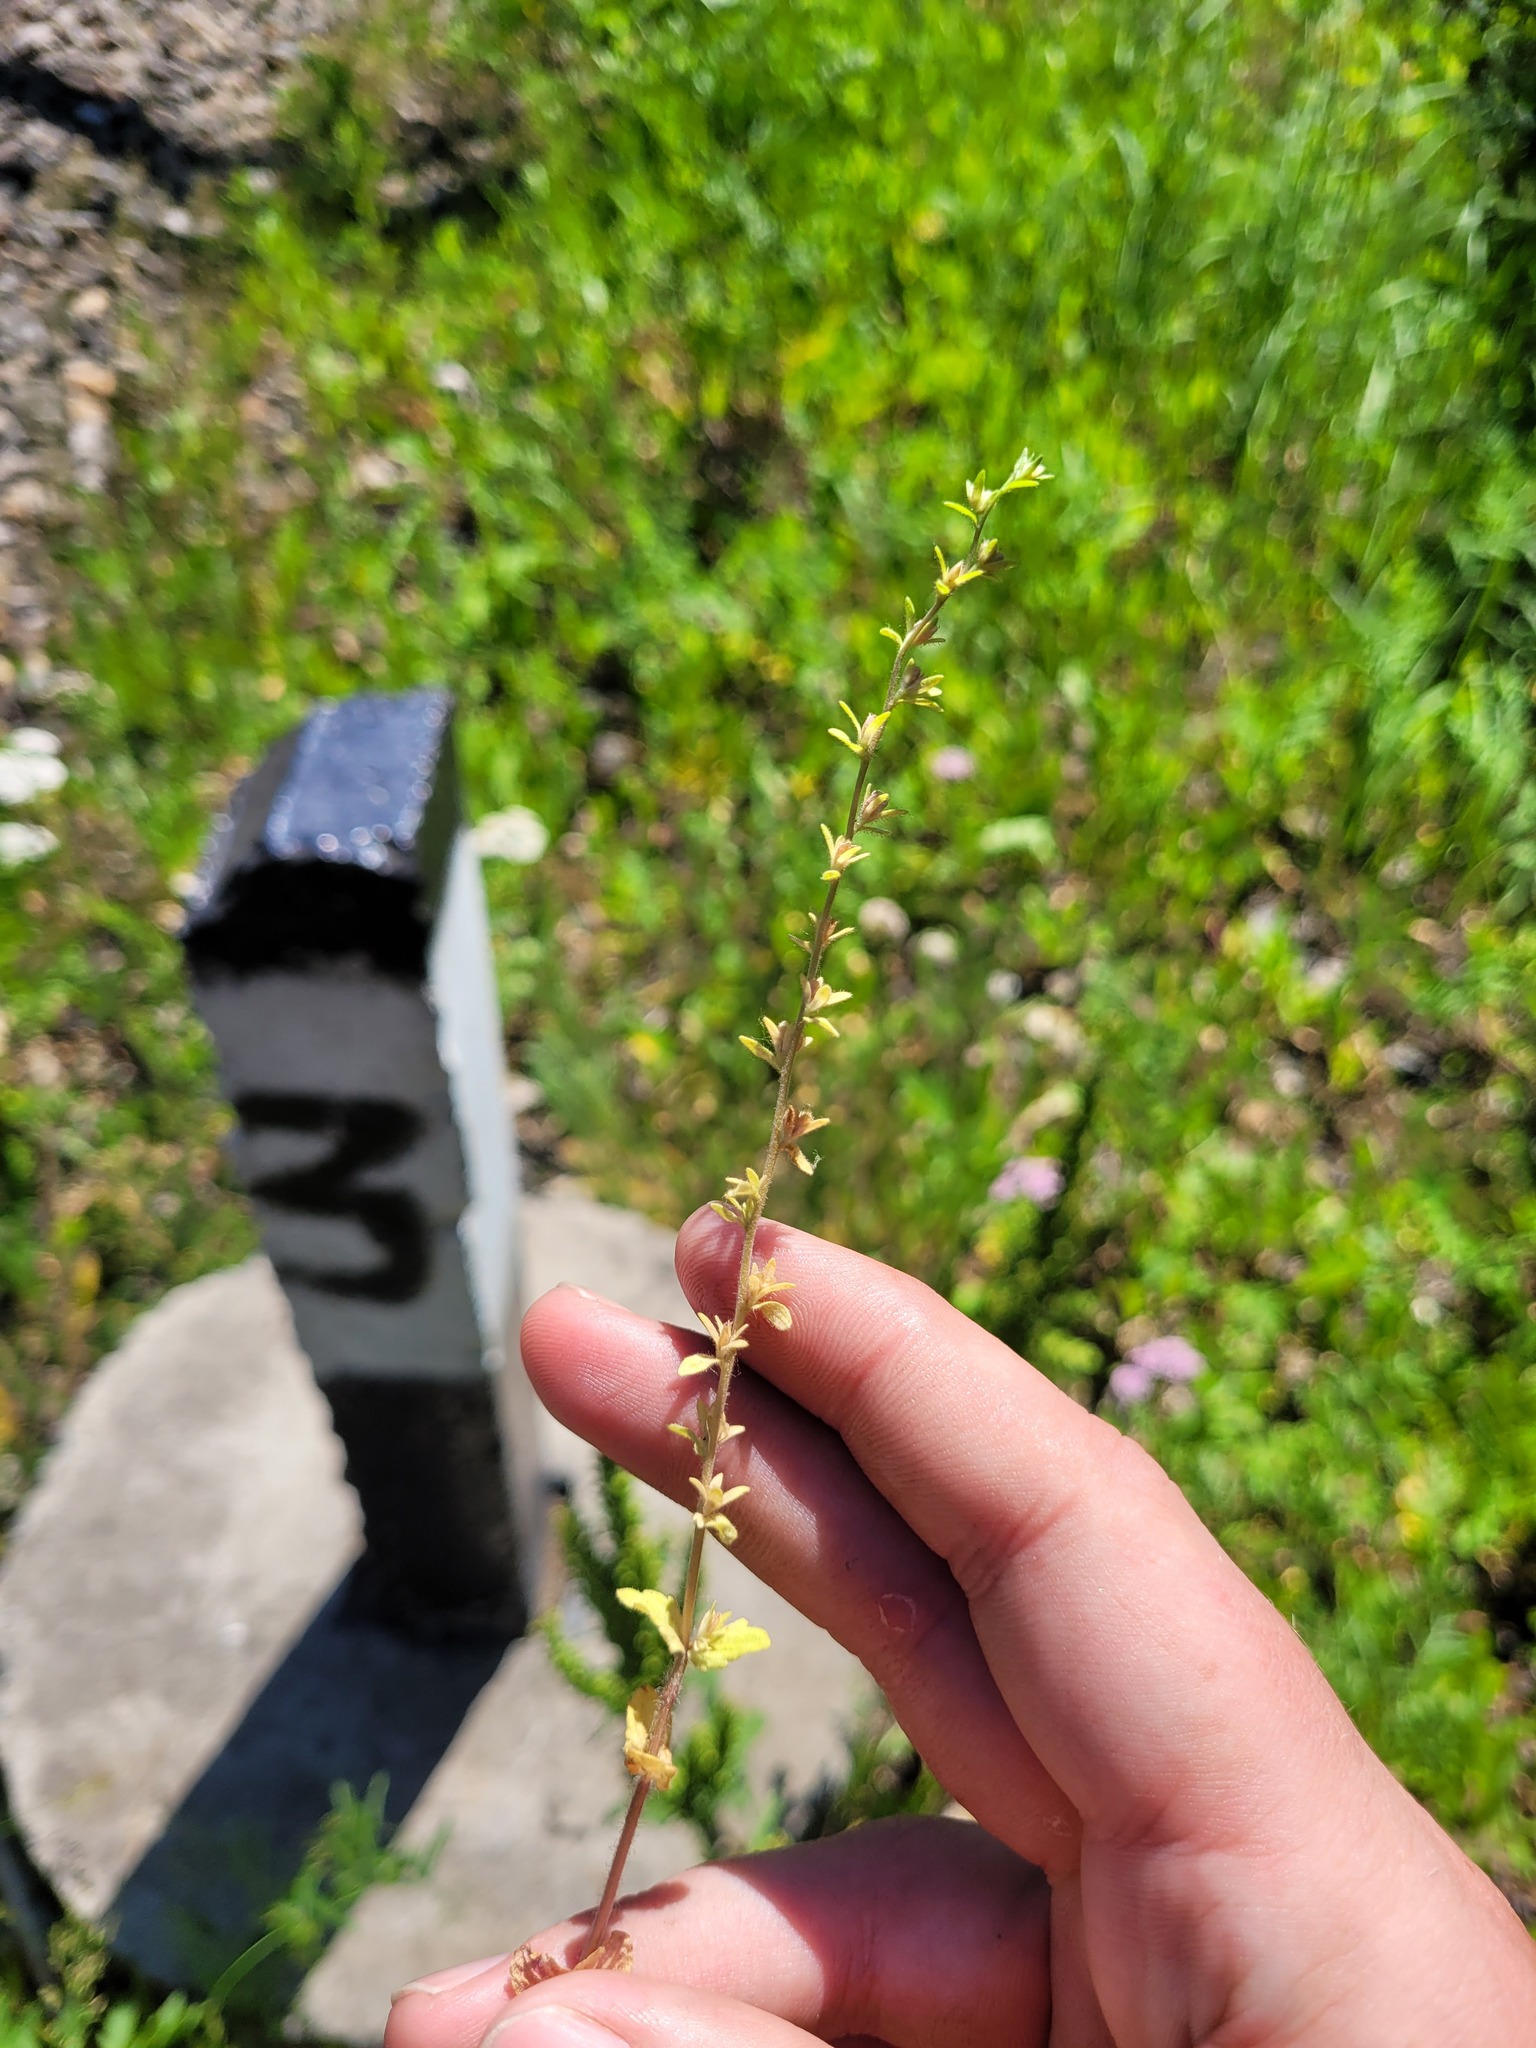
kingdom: Plantae
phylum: Tracheophyta
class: Magnoliopsida
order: Lamiales
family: Plantaginaceae
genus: Veronica
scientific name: Veronica arvensis
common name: Corn speedwell
